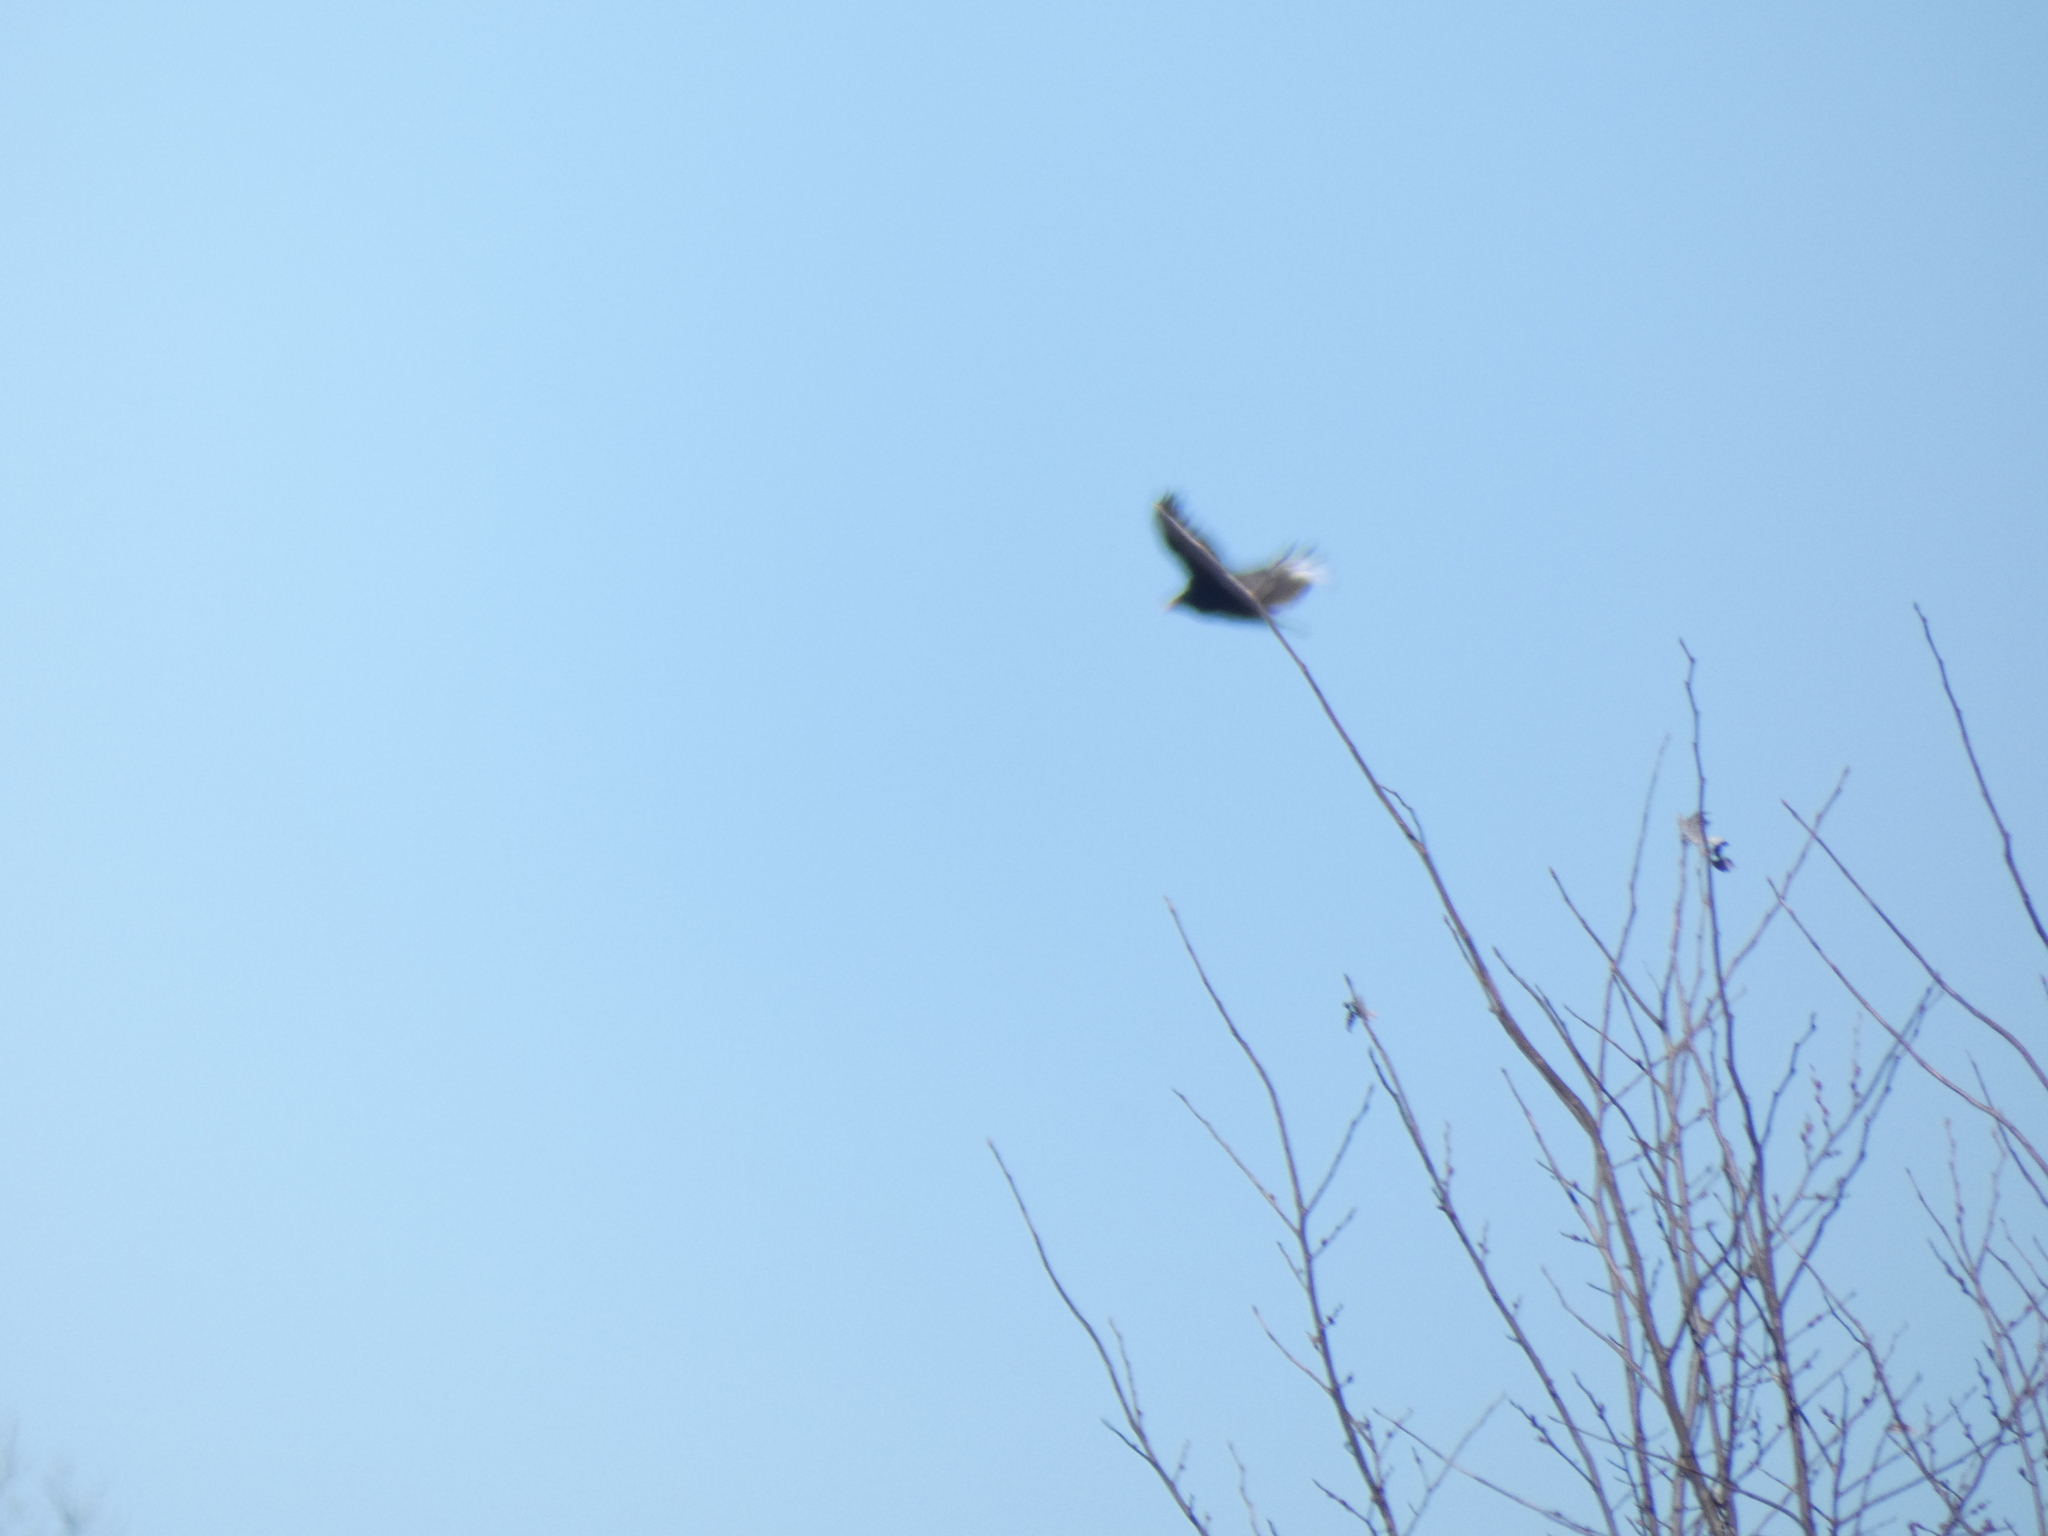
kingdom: Animalia
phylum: Chordata
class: Aves
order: Accipitriformes
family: Cathartidae
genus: Cathartes
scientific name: Cathartes aura
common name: Turkey vulture
